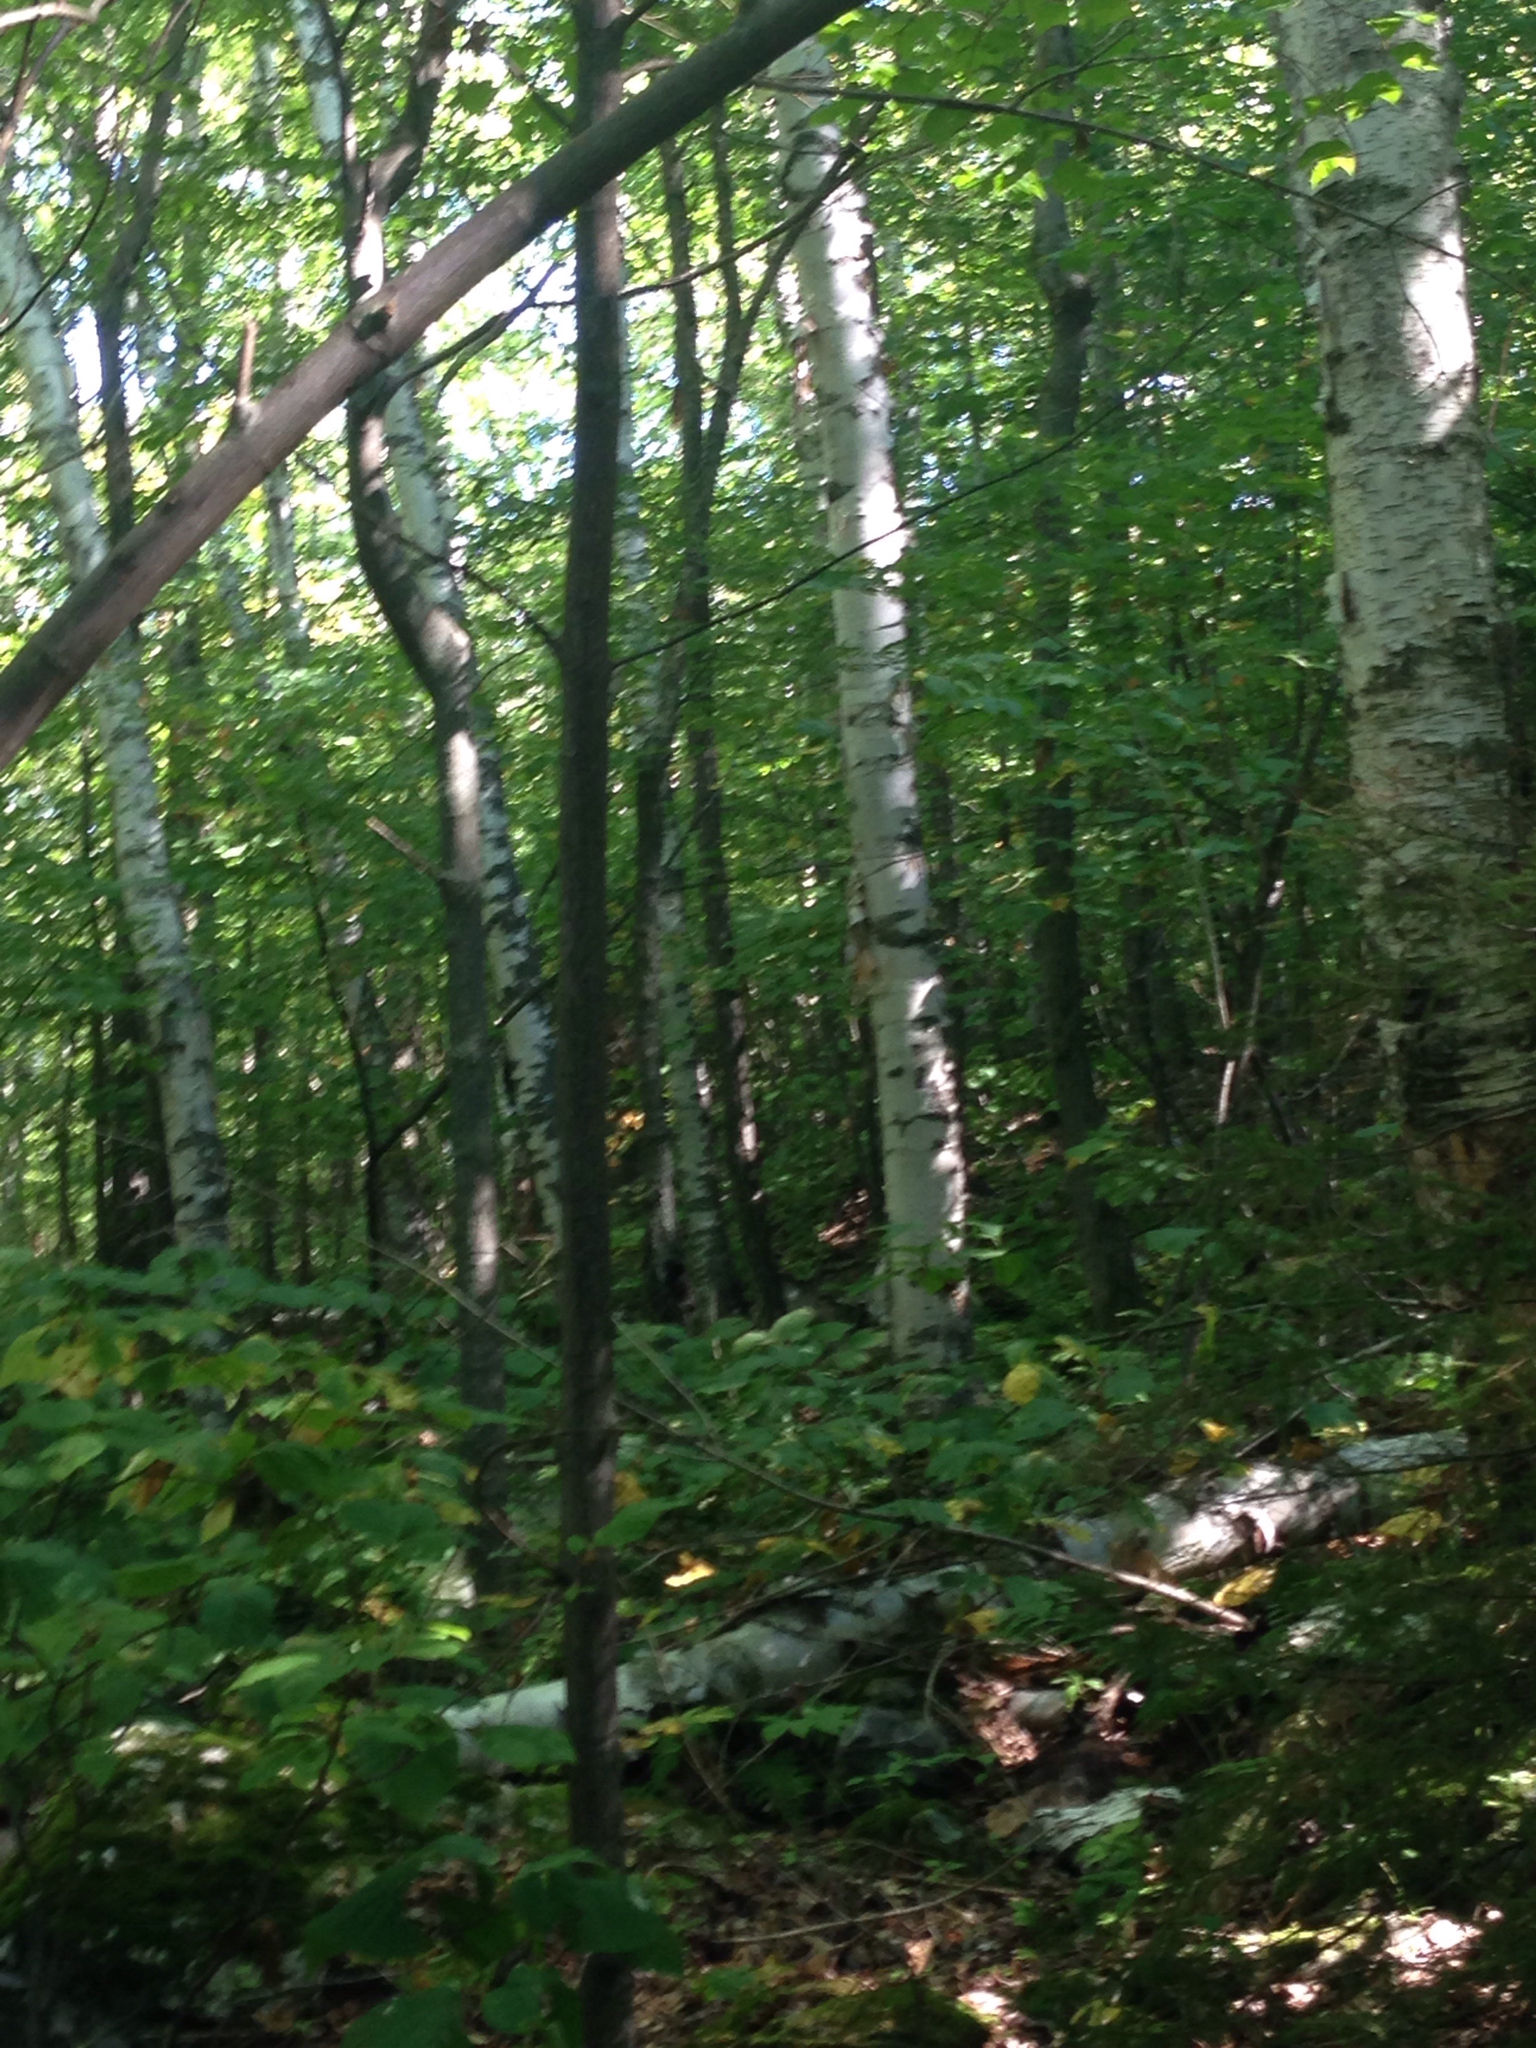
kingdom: Plantae
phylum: Tracheophyta
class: Magnoliopsida
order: Fagales
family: Betulaceae
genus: Betula
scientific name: Betula papyrifera
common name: Paper birch
